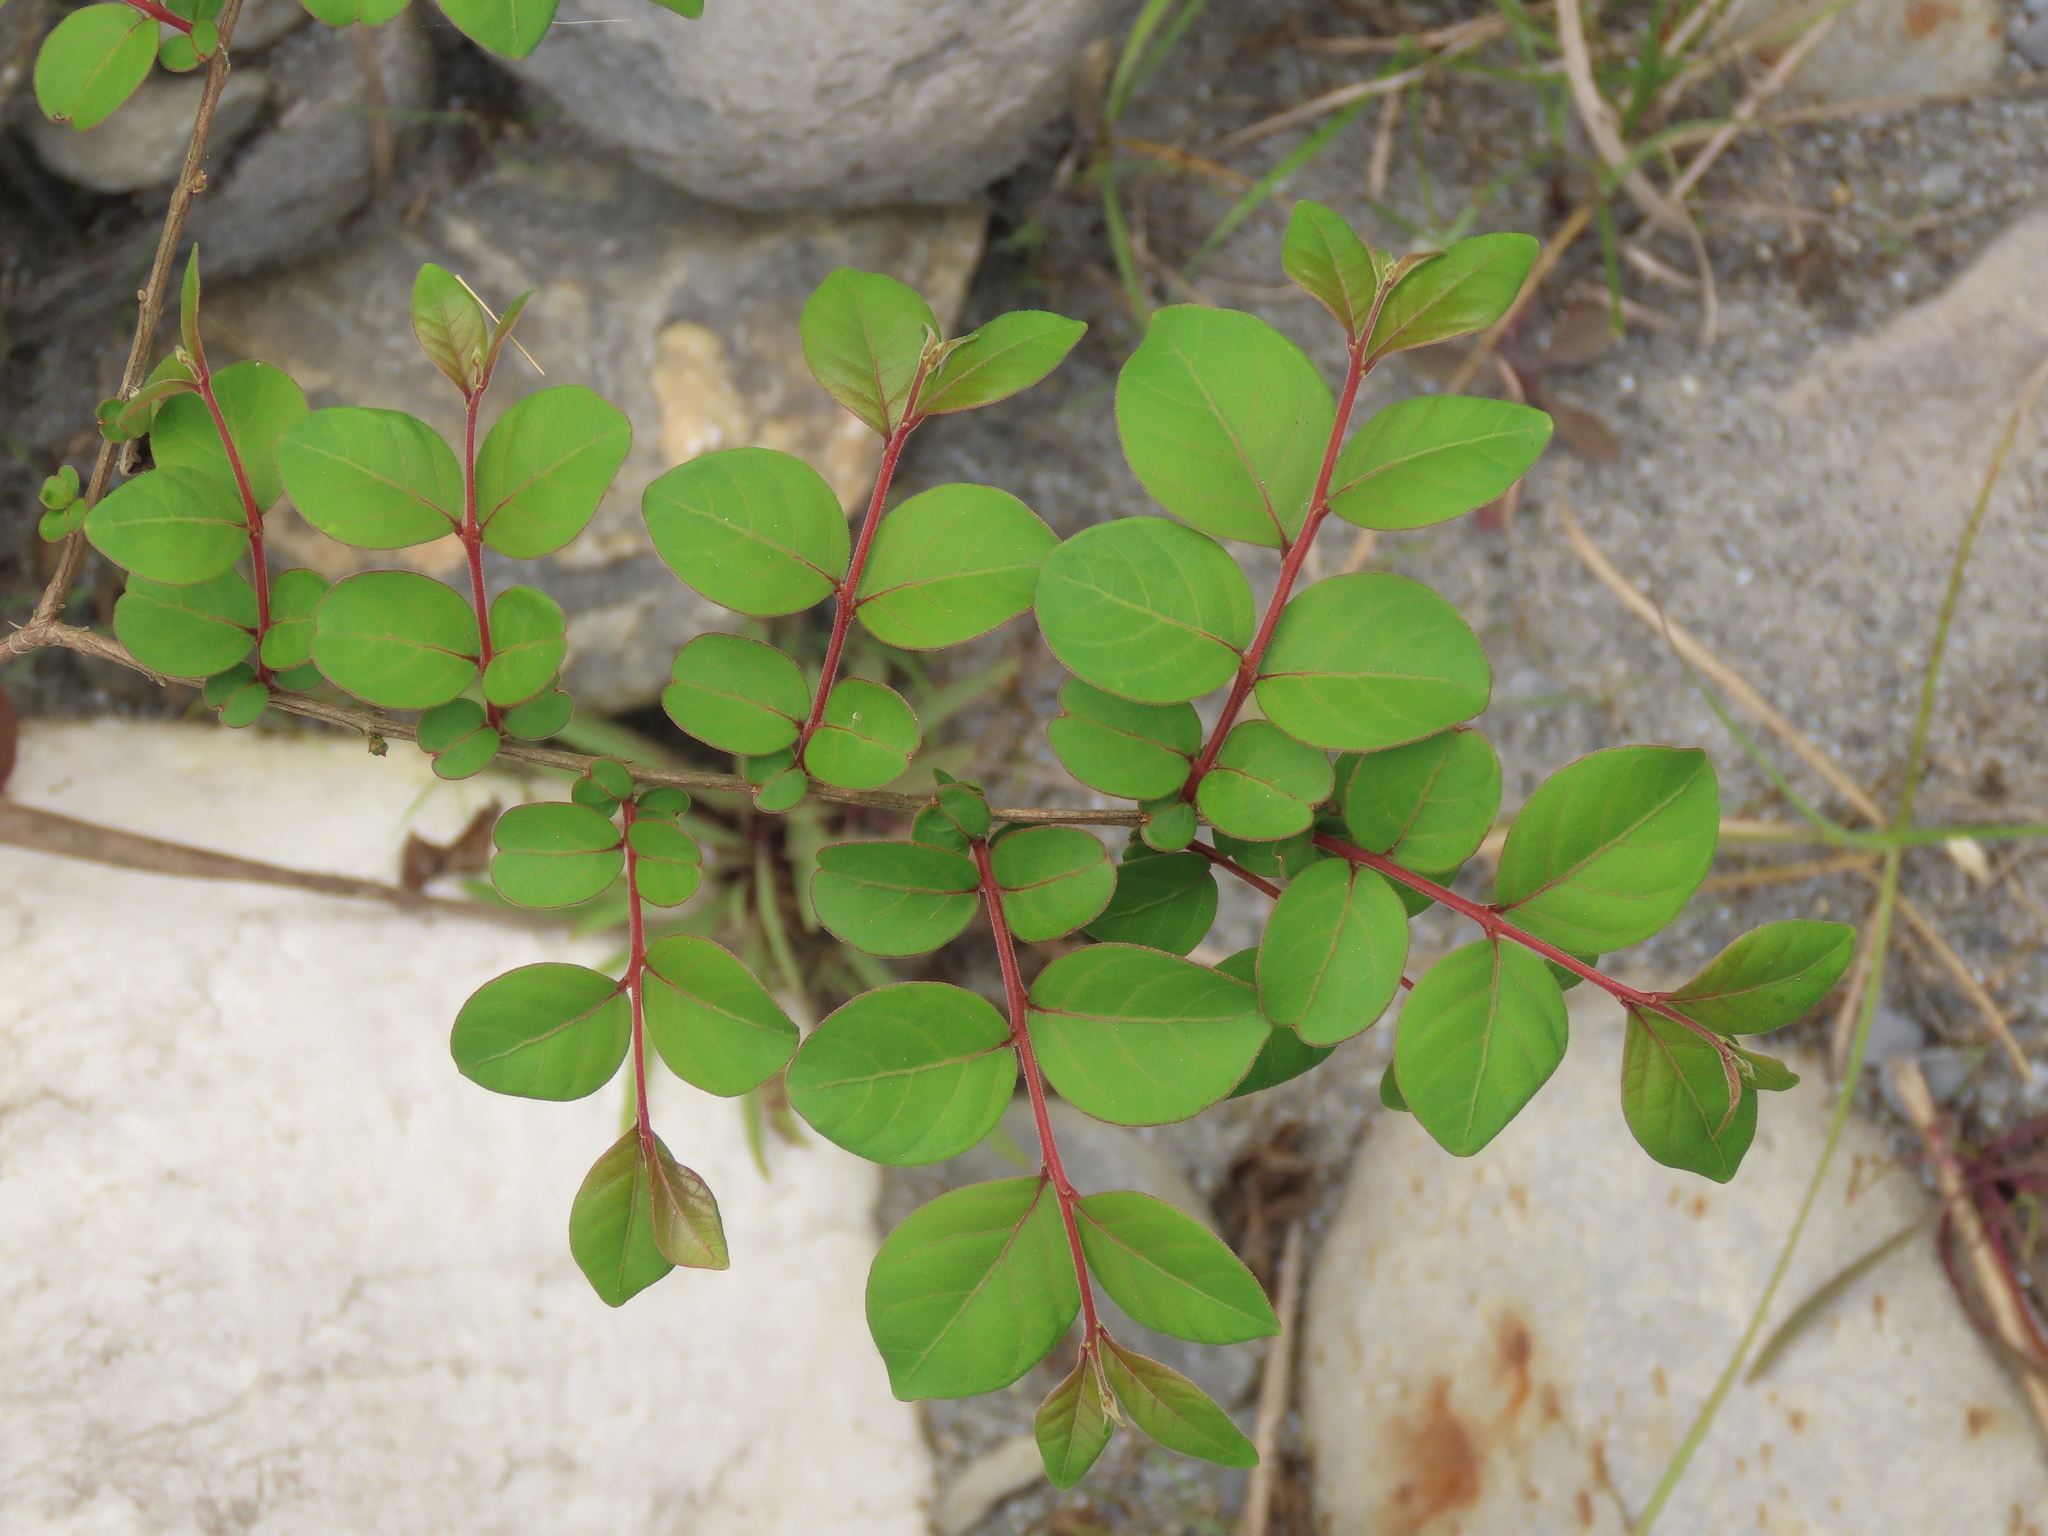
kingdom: Plantae
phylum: Tracheophyta
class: Magnoliopsida
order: Myrtales
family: Lythraceae
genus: Lagerstroemia
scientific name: Lagerstroemia subcostata
